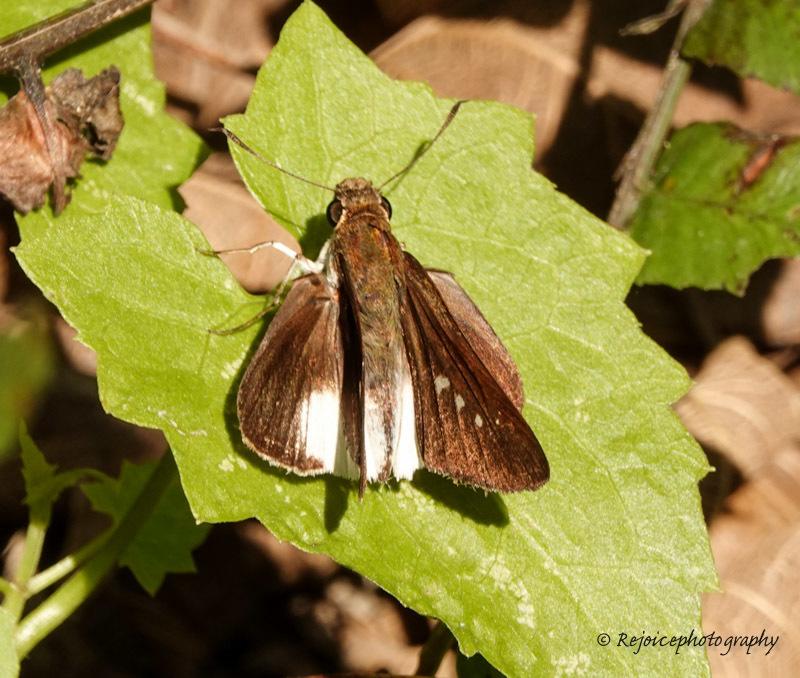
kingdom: Animalia
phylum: Arthropoda
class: Insecta
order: Lepidoptera
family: Hesperiidae
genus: Iton
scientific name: Iton semamora
